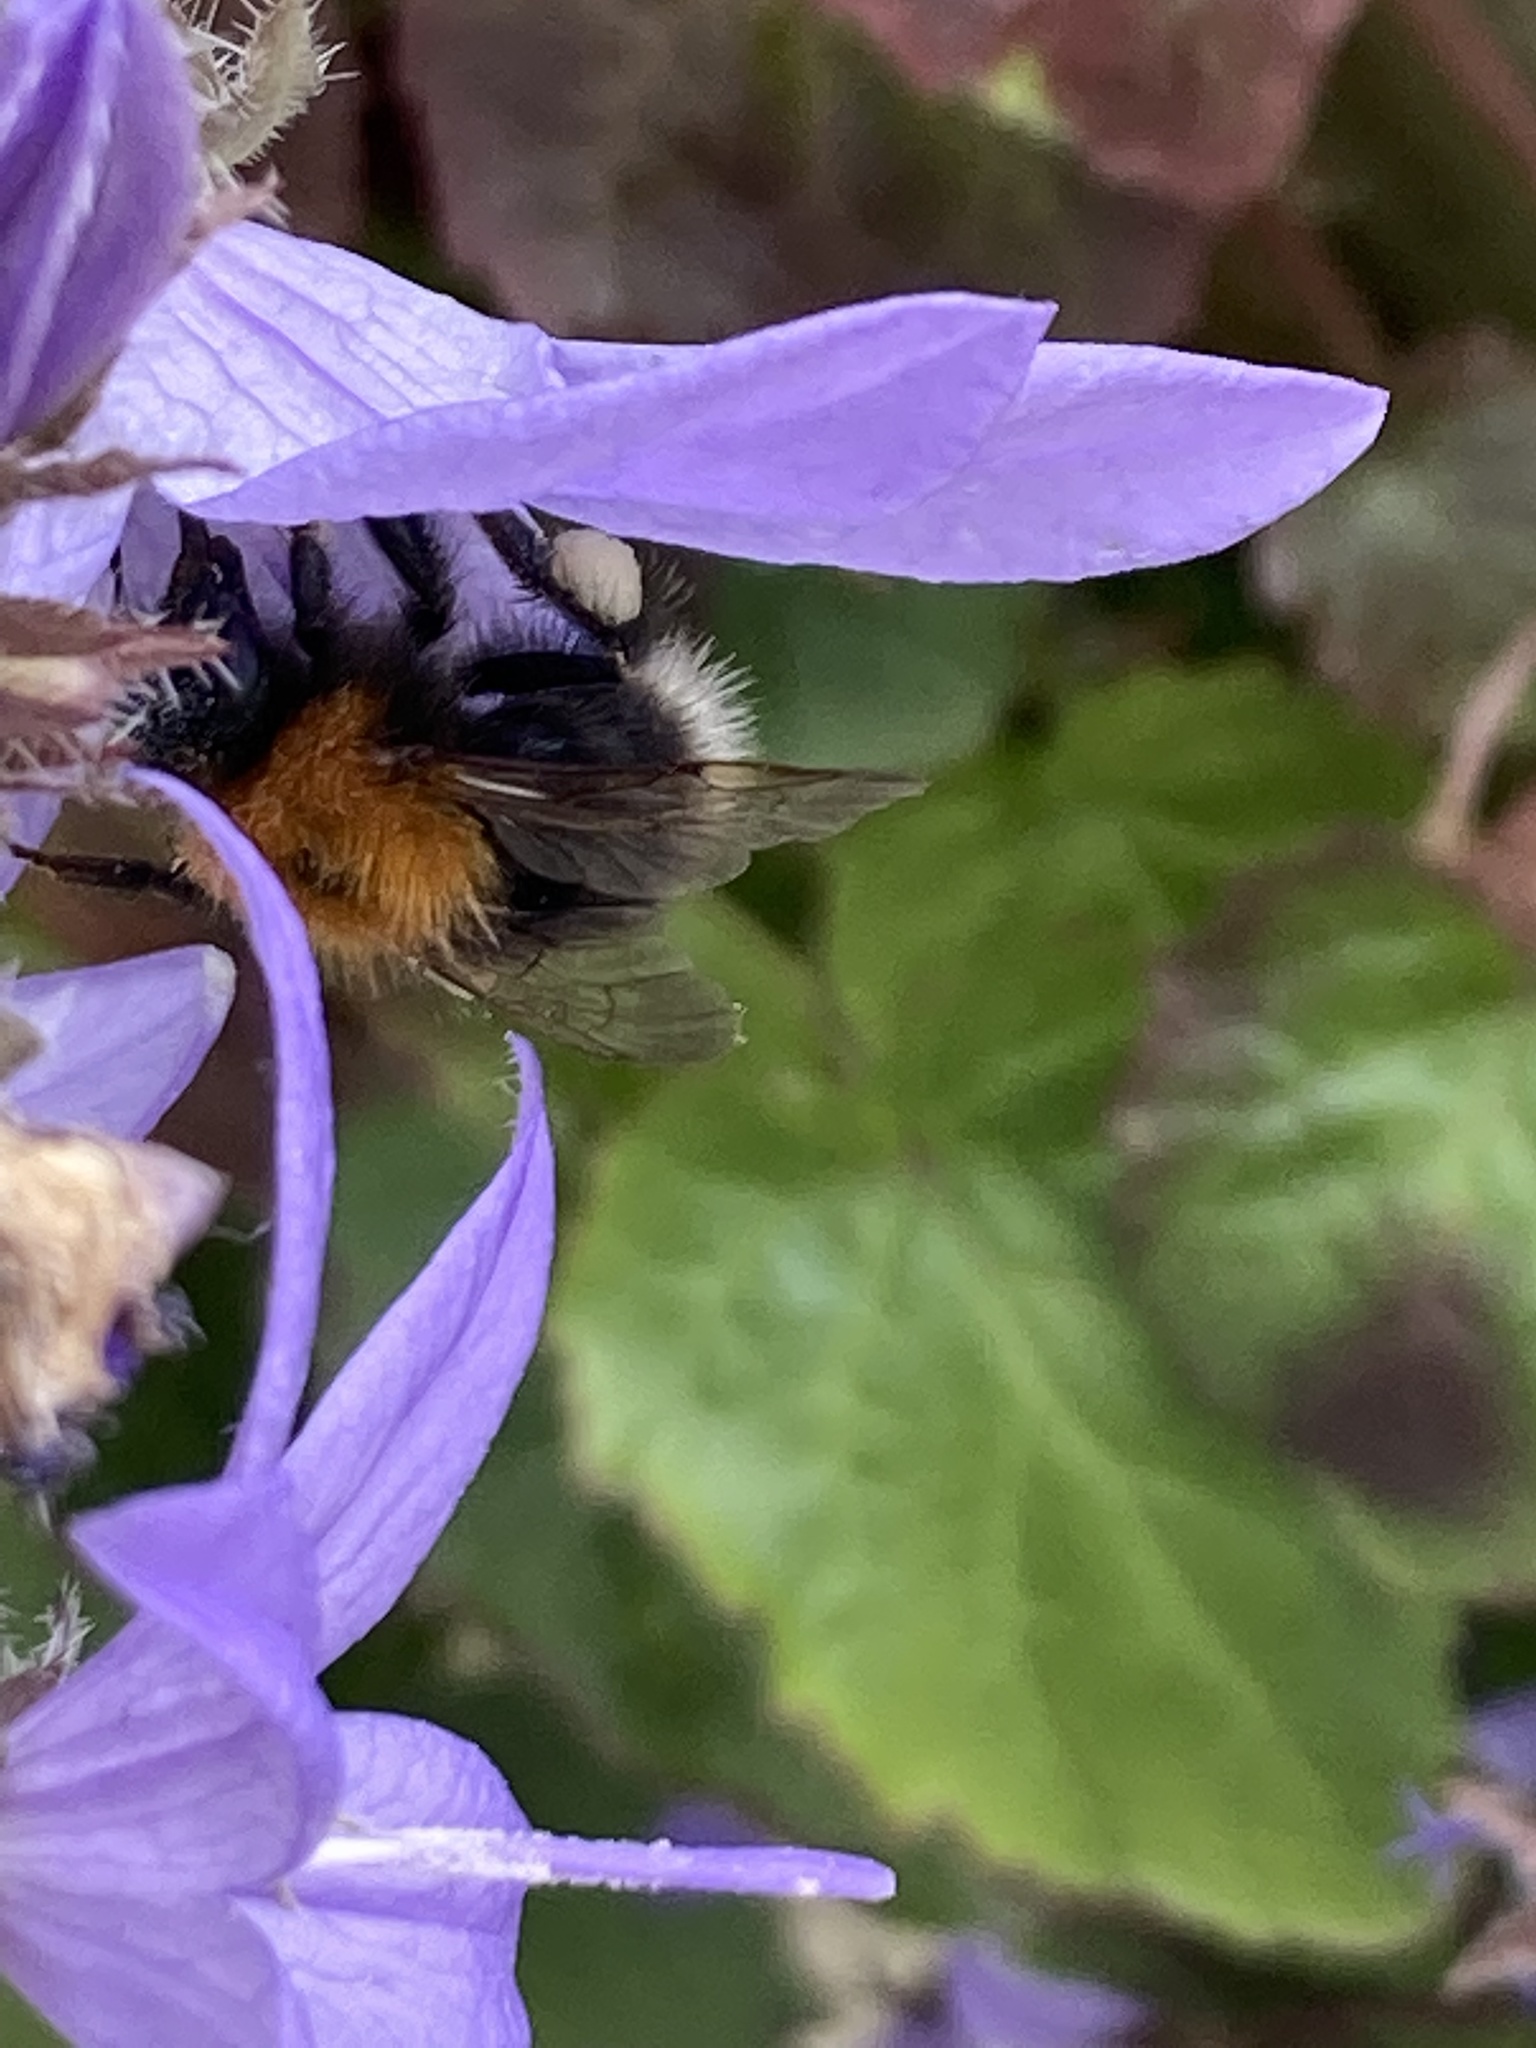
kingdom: Animalia
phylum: Arthropoda
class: Insecta
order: Hymenoptera
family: Apidae
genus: Bombus
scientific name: Bombus hypnorum
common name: New garden bumblebee
